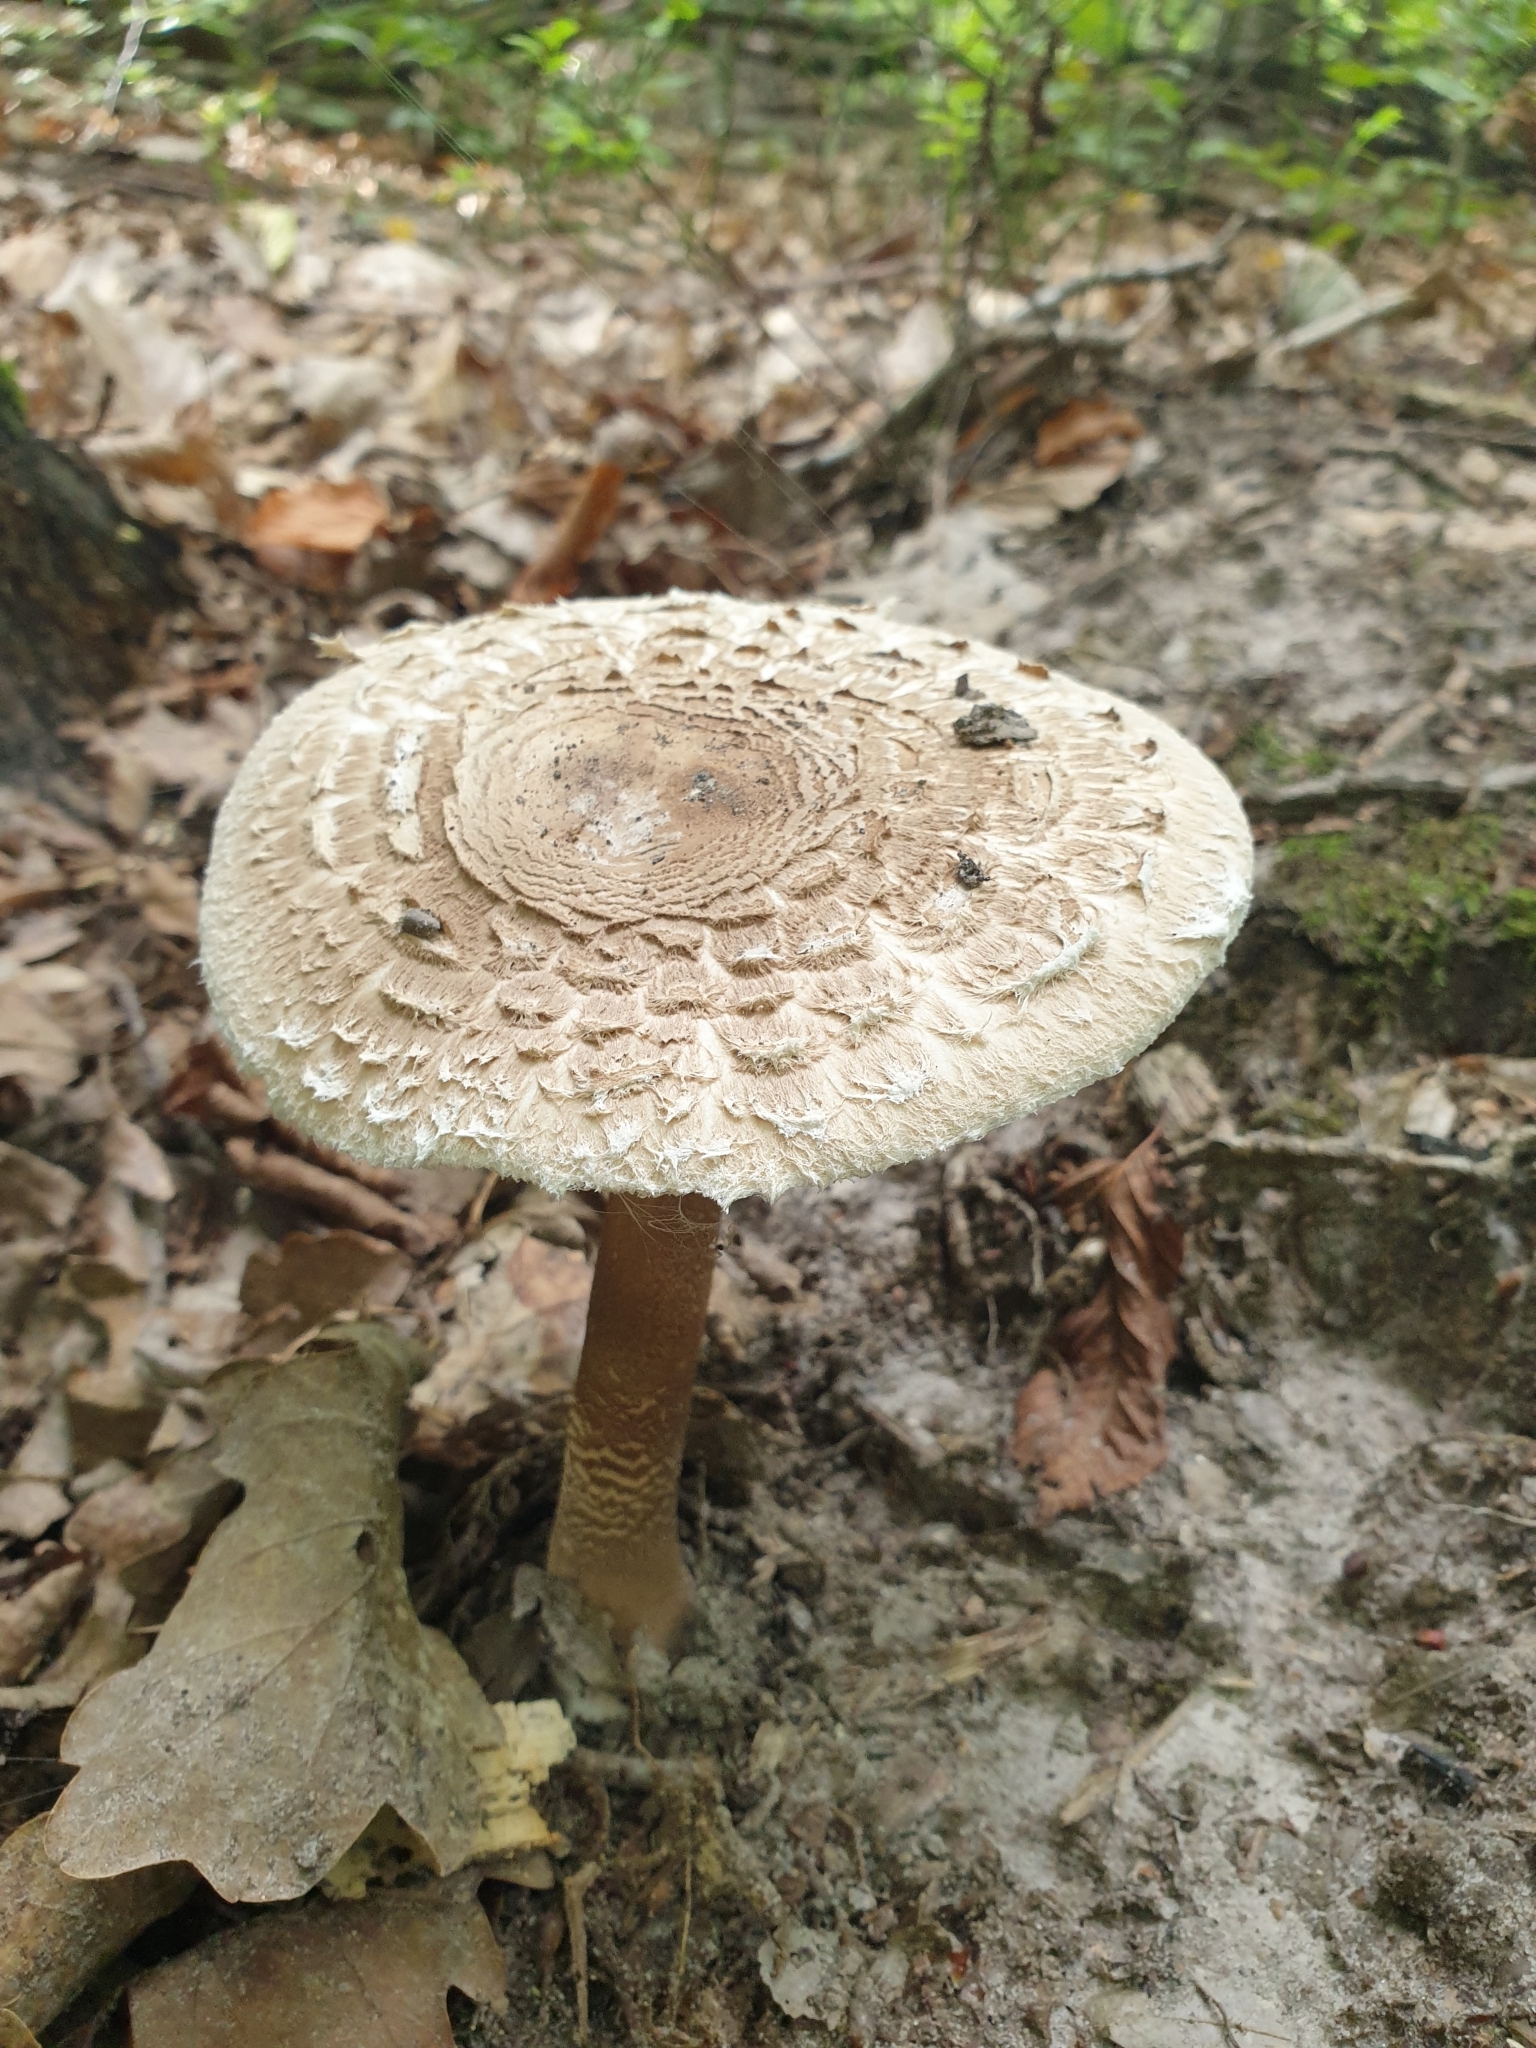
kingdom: Fungi
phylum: Basidiomycota
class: Agaricomycetes
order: Agaricales
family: Agaricaceae
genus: Macrolepiota
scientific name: Macrolepiota procera
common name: Parasol
